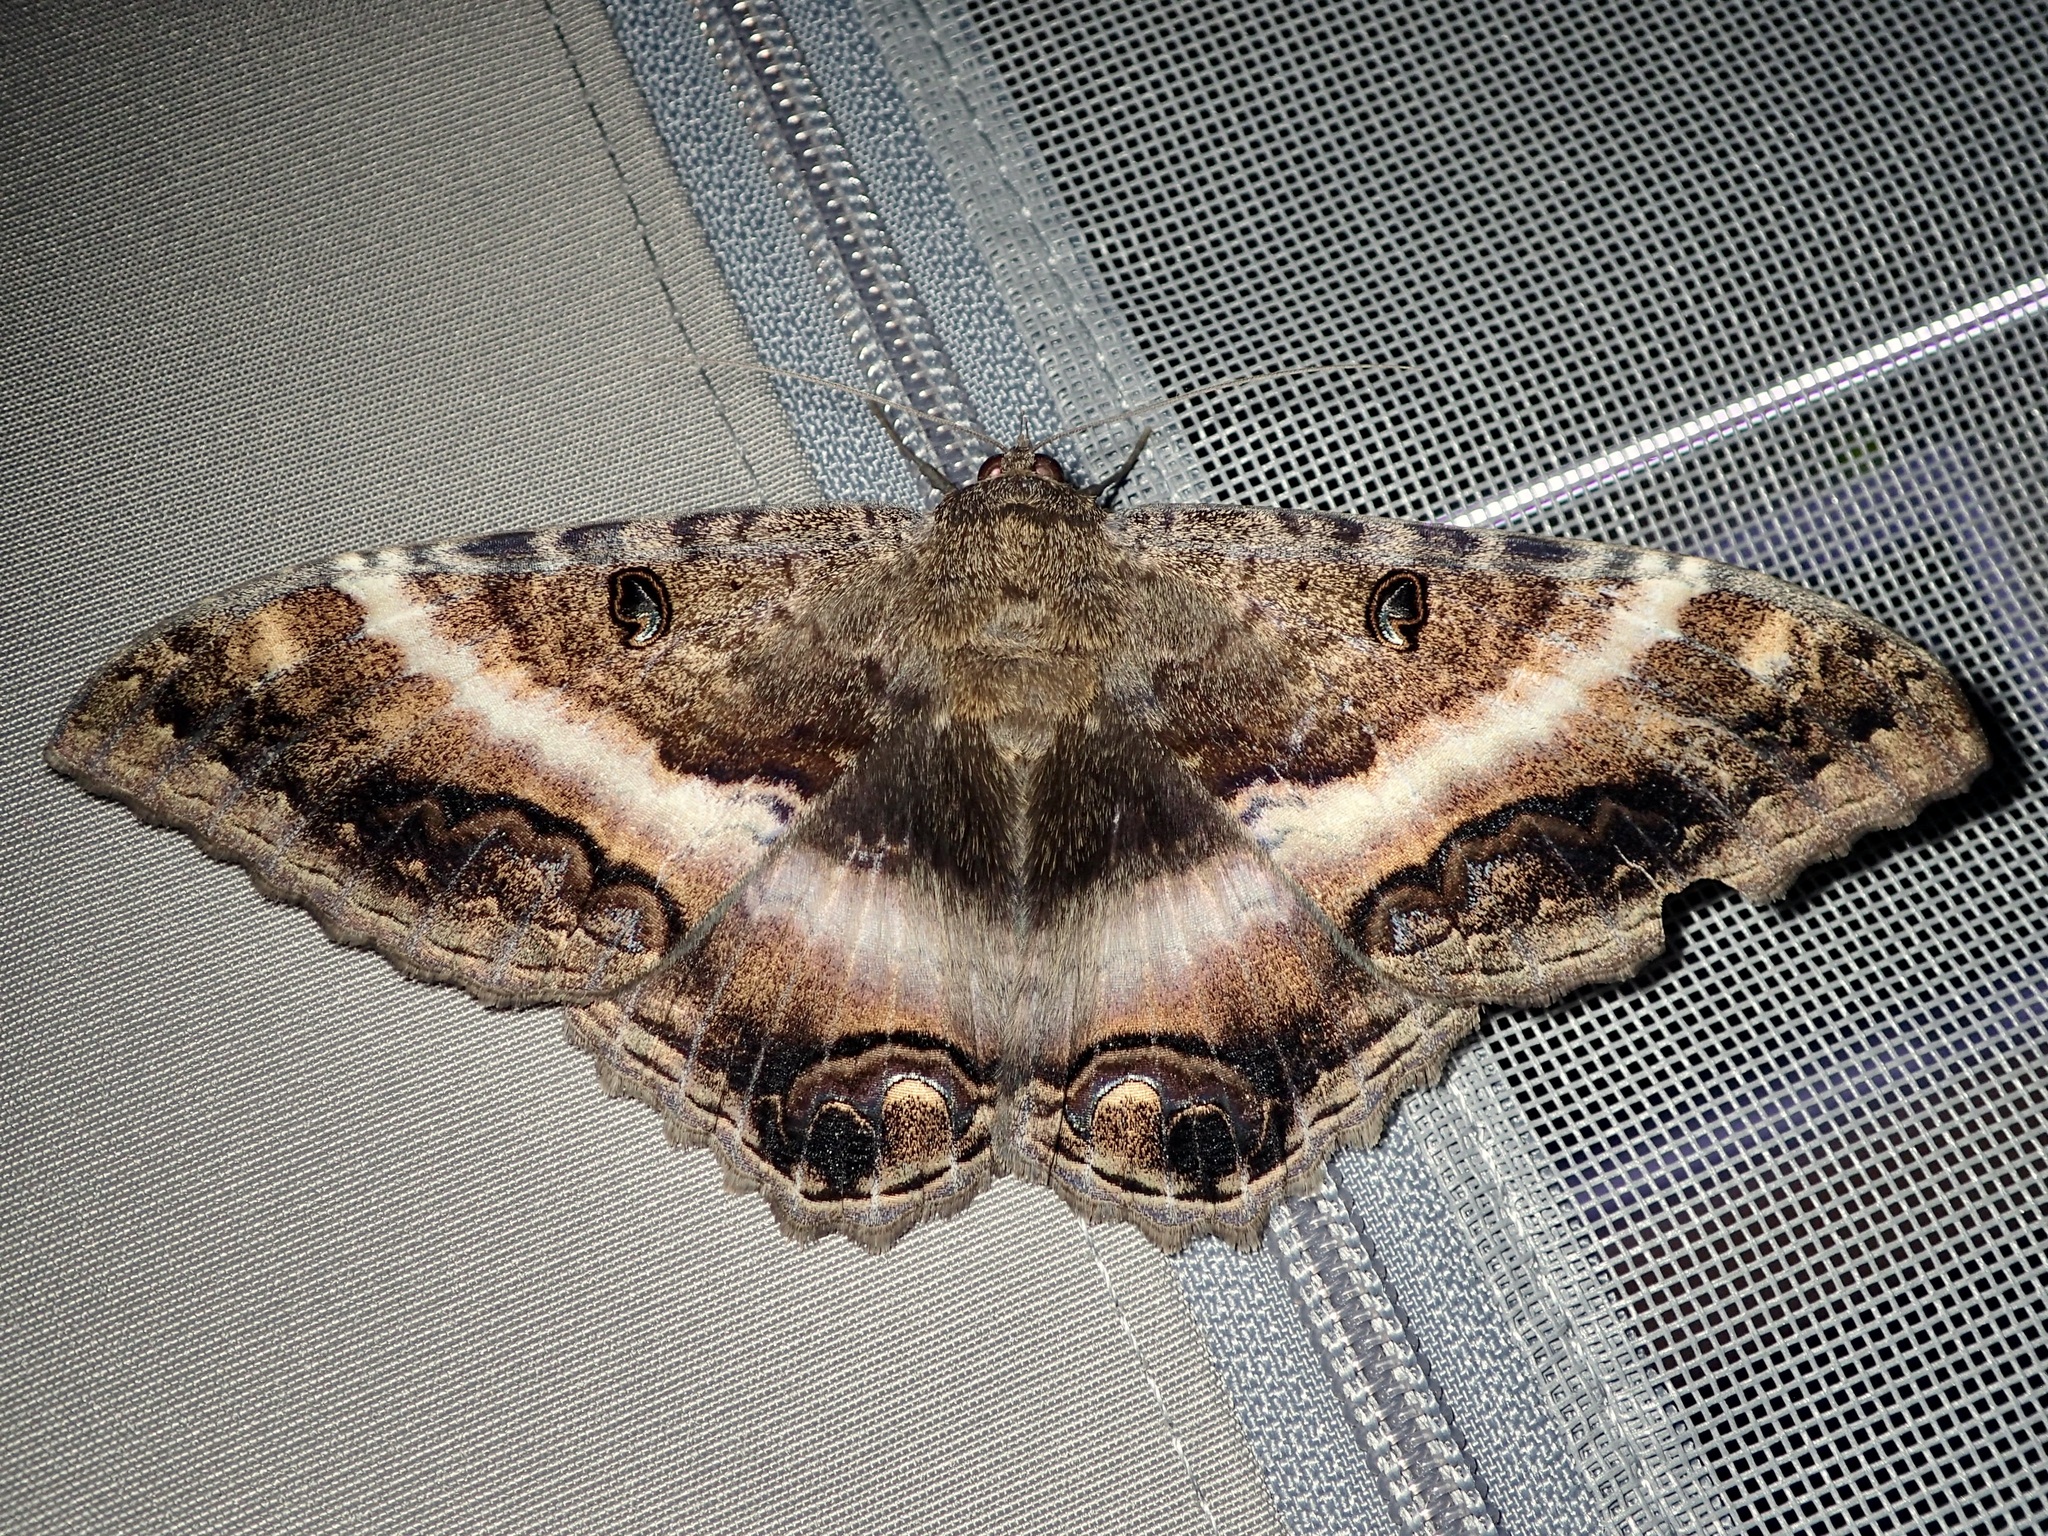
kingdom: Animalia
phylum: Arthropoda
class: Insecta
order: Lepidoptera
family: Erebidae
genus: Ascalapha
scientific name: Ascalapha odorata
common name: Black witch
